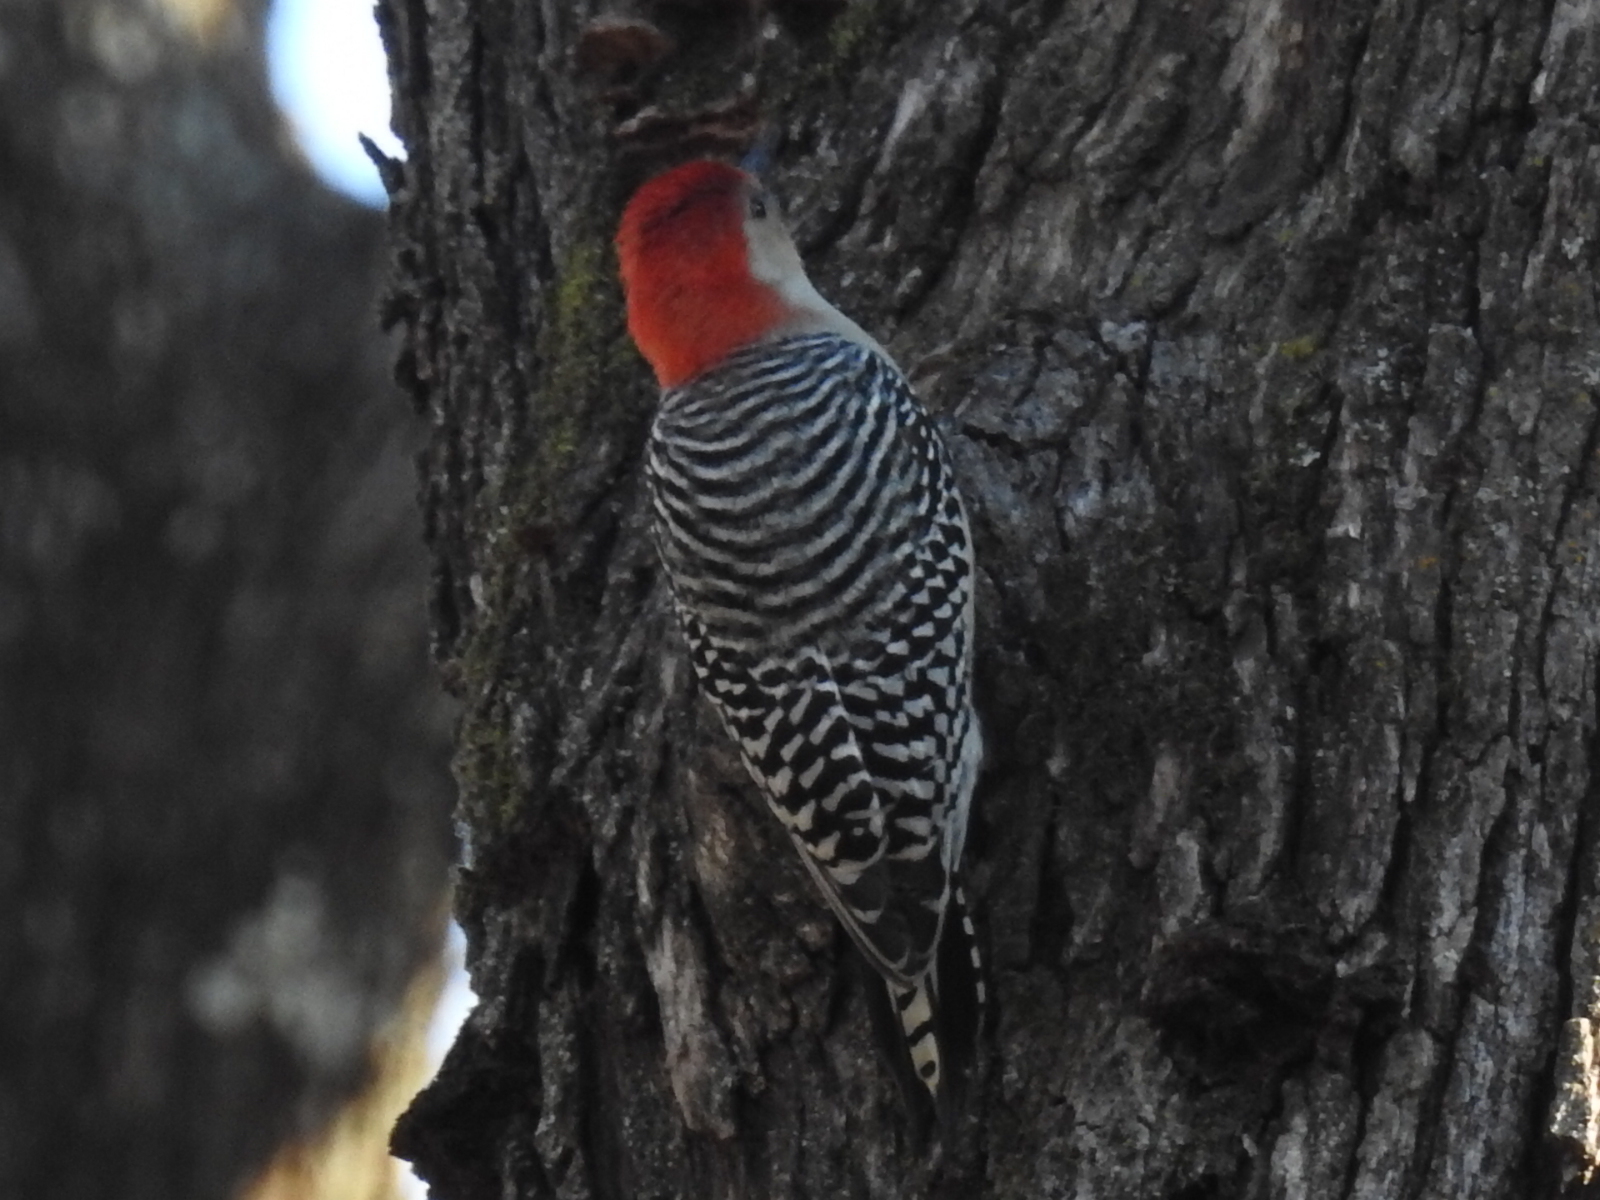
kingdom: Animalia
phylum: Chordata
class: Aves
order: Piciformes
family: Picidae
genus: Melanerpes
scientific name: Melanerpes carolinus
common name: Red-bellied woodpecker
